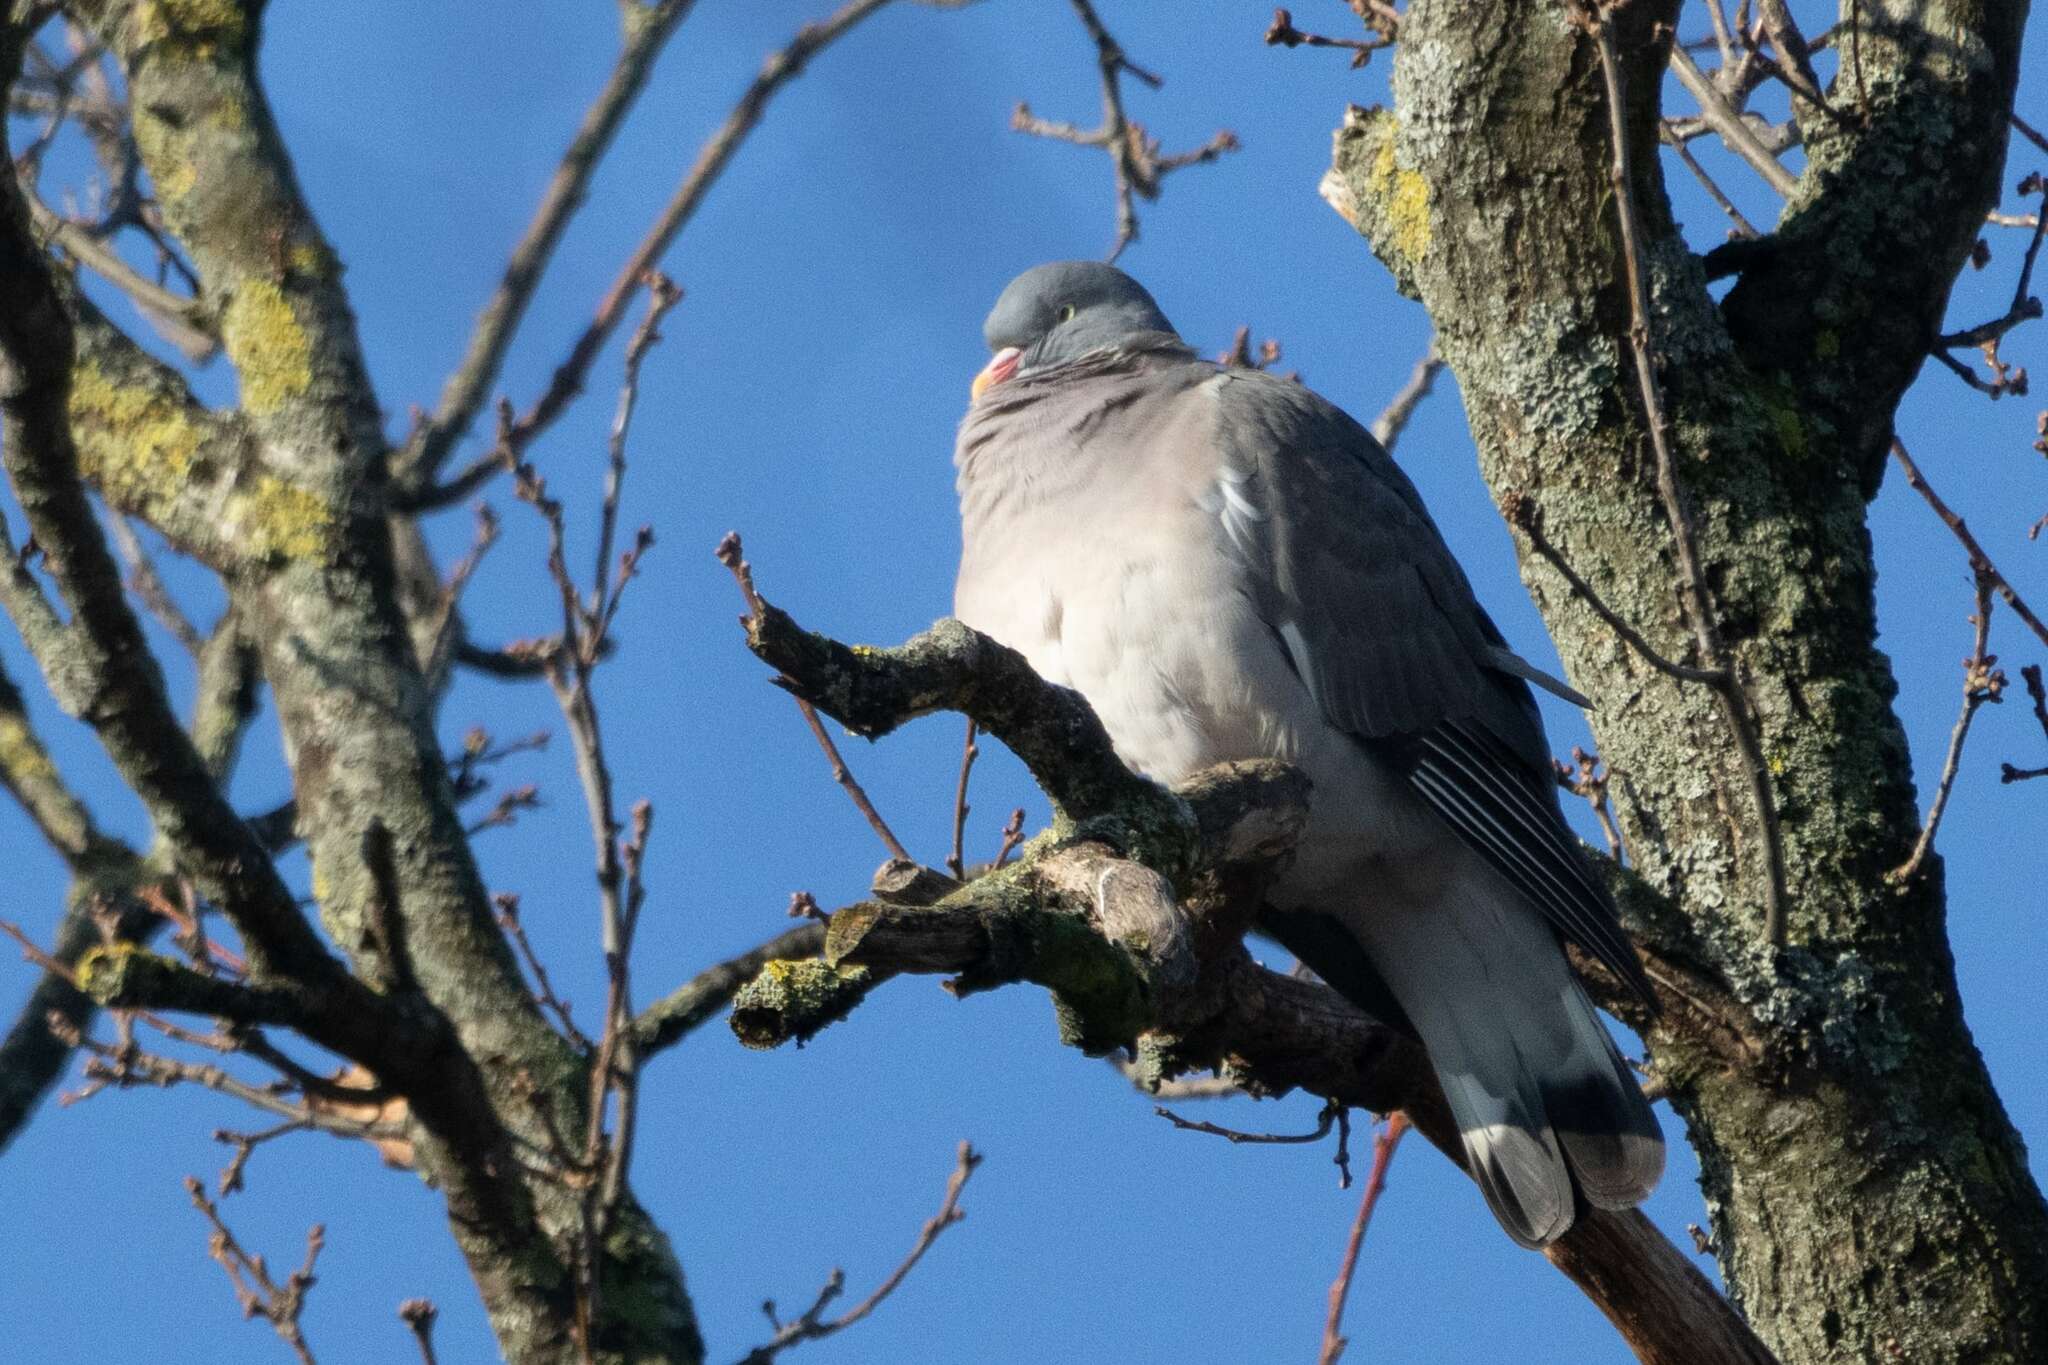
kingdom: Animalia
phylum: Chordata
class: Aves
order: Columbiformes
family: Columbidae
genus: Columba
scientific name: Columba palumbus
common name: Common wood pigeon
